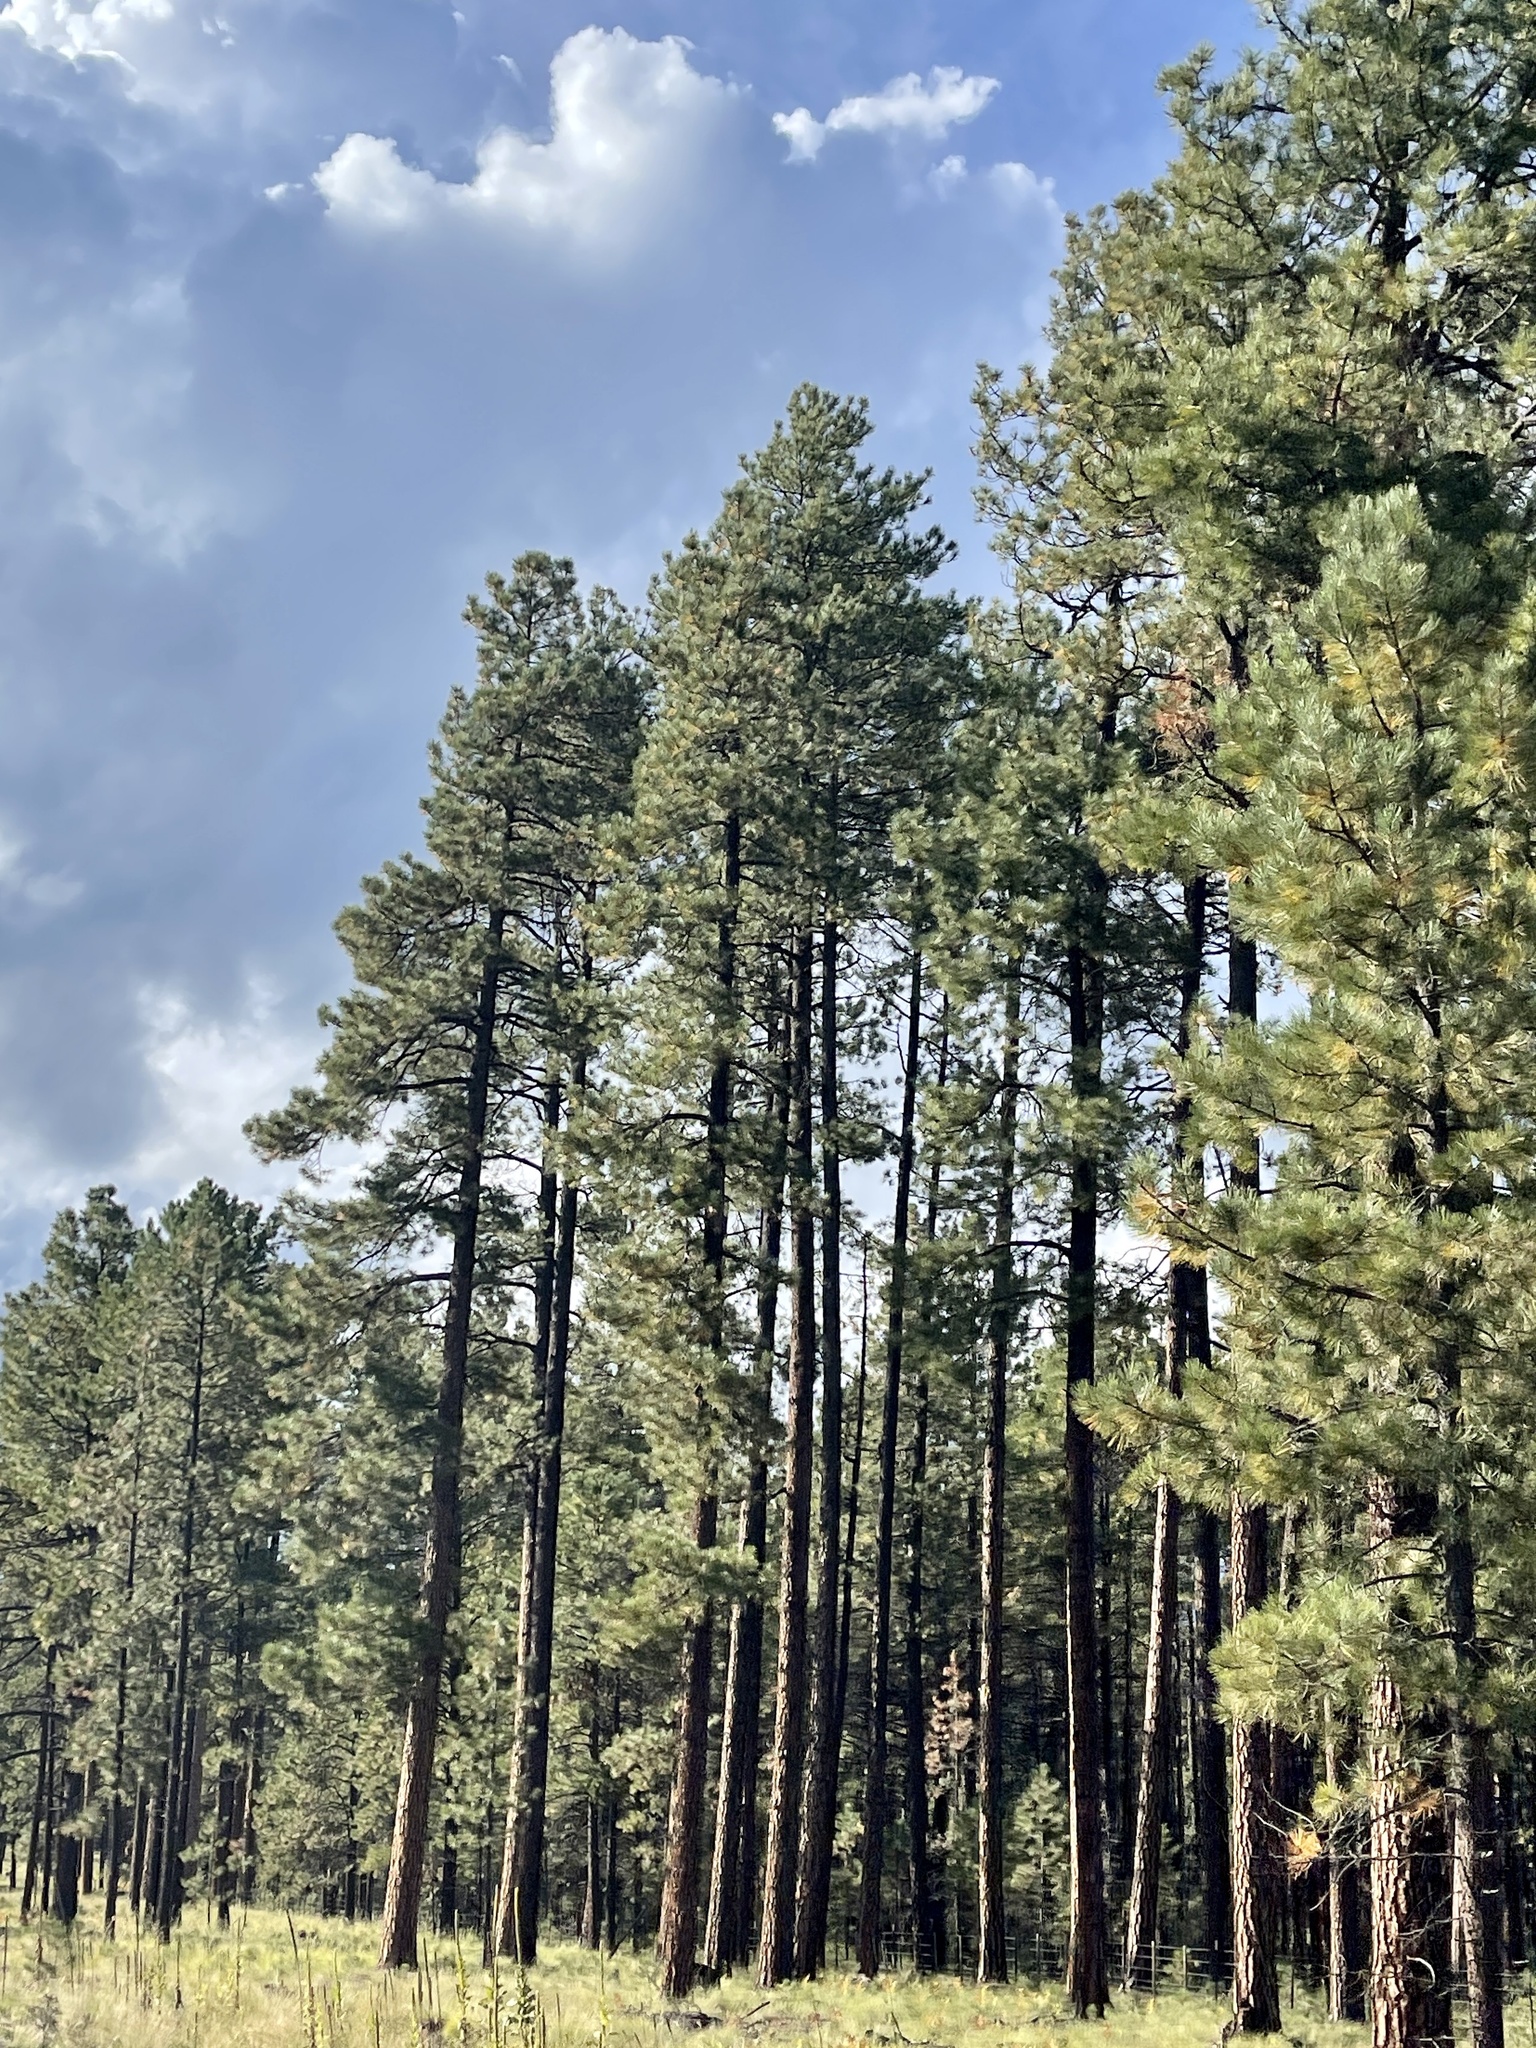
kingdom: Plantae
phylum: Tracheophyta
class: Pinopsida
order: Pinales
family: Pinaceae
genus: Pinus
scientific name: Pinus ponderosa
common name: Western yellow-pine
